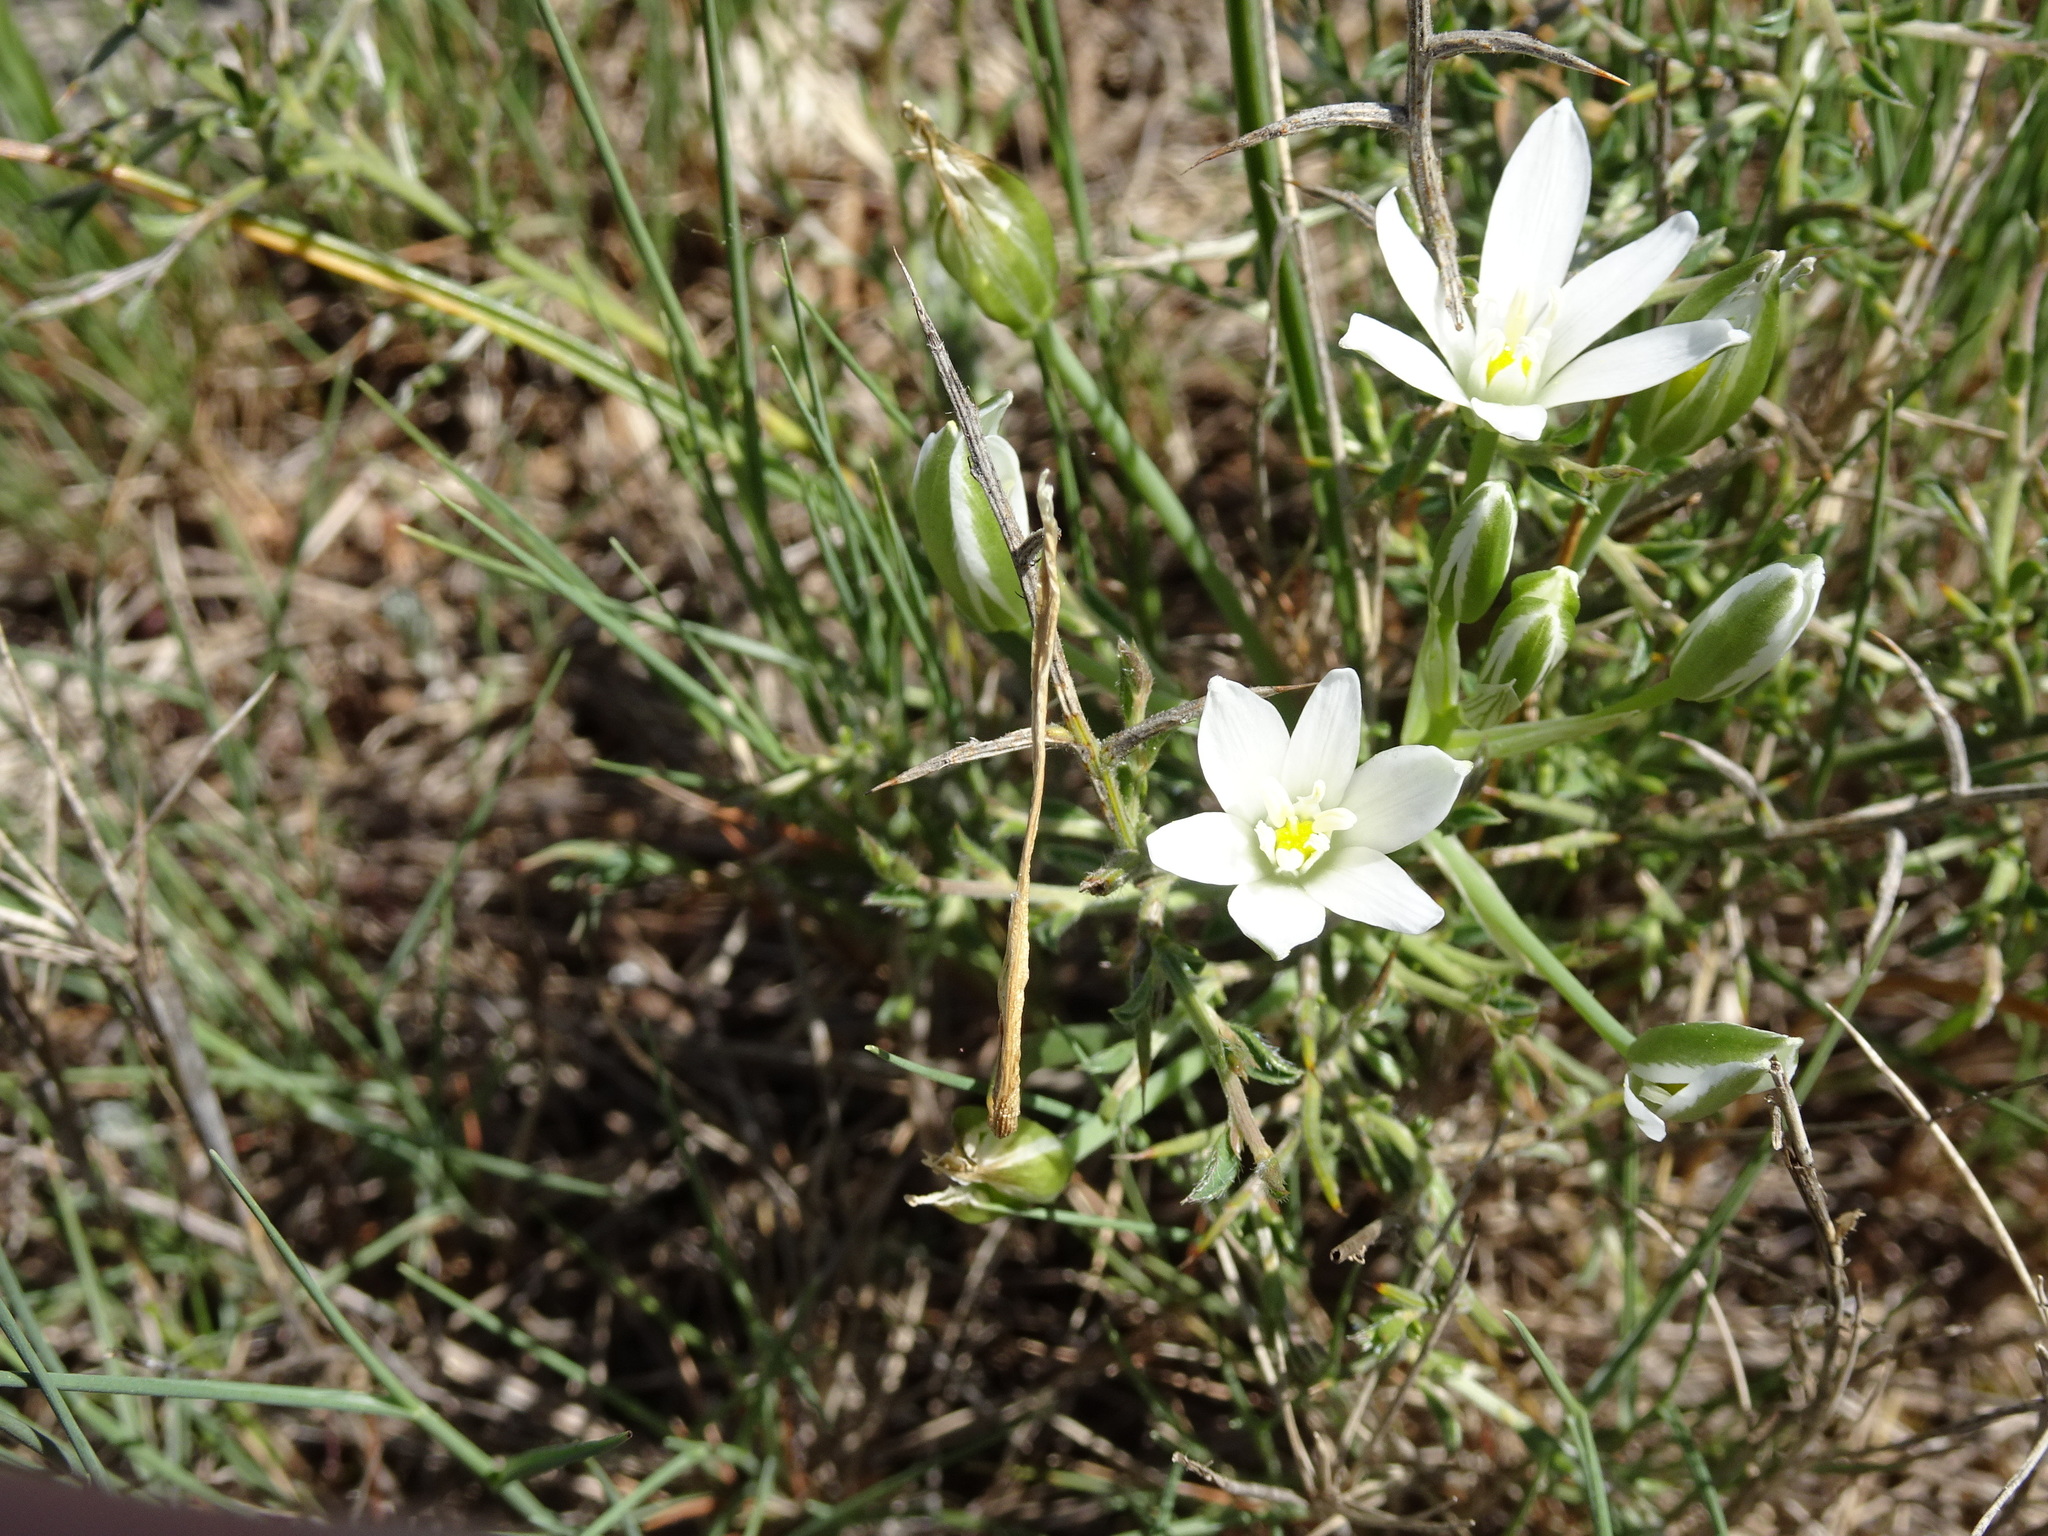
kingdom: Plantae
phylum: Tracheophyta
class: Liliopsida
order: Asparagales
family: Asparagaceae
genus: Ornithogalum
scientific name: Ornithogalum umbellatum
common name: Garden star-of-bethlehem
